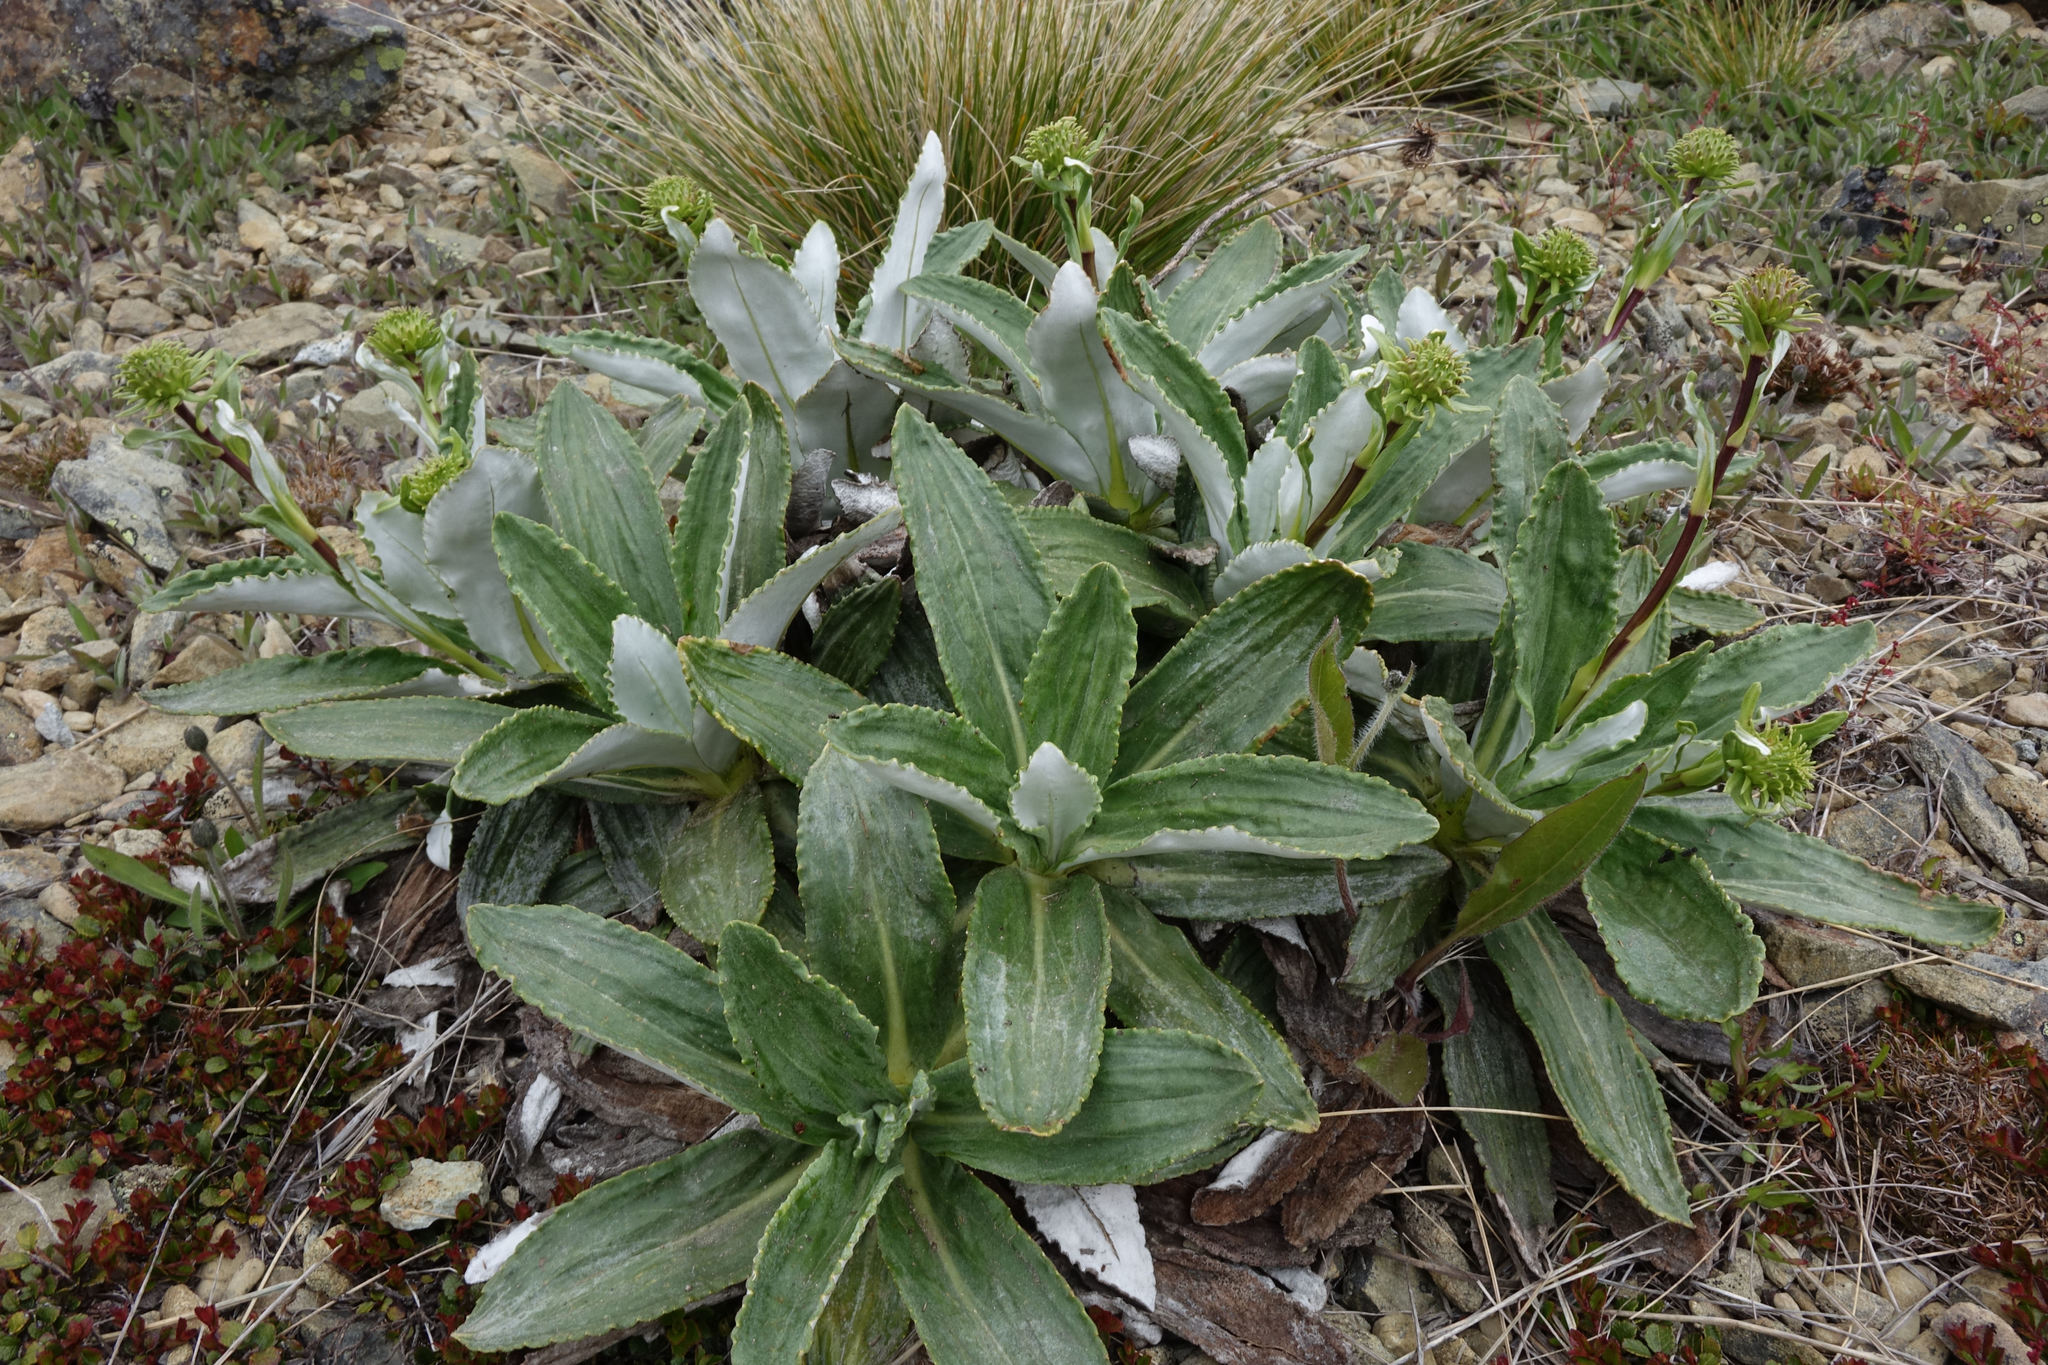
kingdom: Plantae
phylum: Tracheophyta
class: Magnoliopsida
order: Asterales
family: Asteraceae
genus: Celmisia
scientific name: Celmisia densiflora
